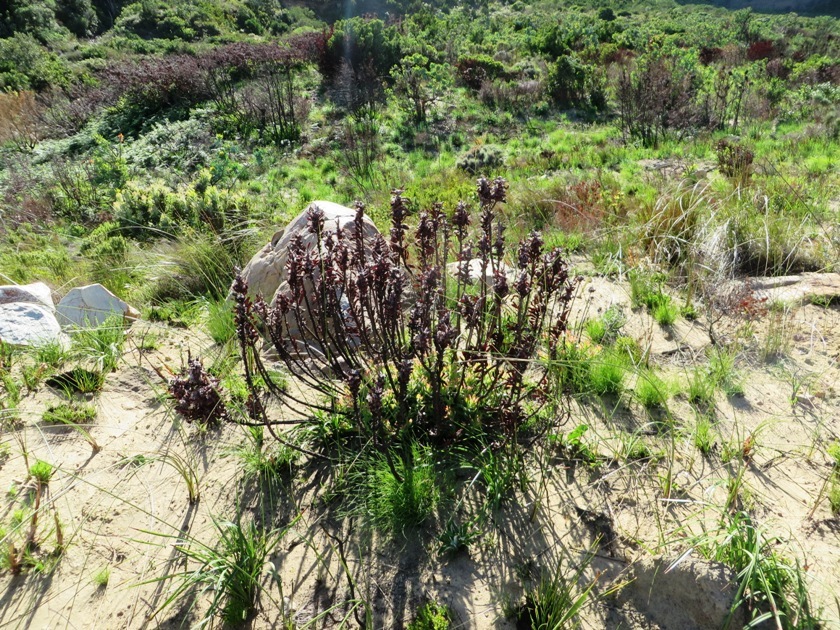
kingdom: Plantae
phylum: Tracheophyta
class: Magnoliopsida
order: Proteales
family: Proteaceae
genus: Mimetes
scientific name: Mimetes cucullatus
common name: Common pagoda
